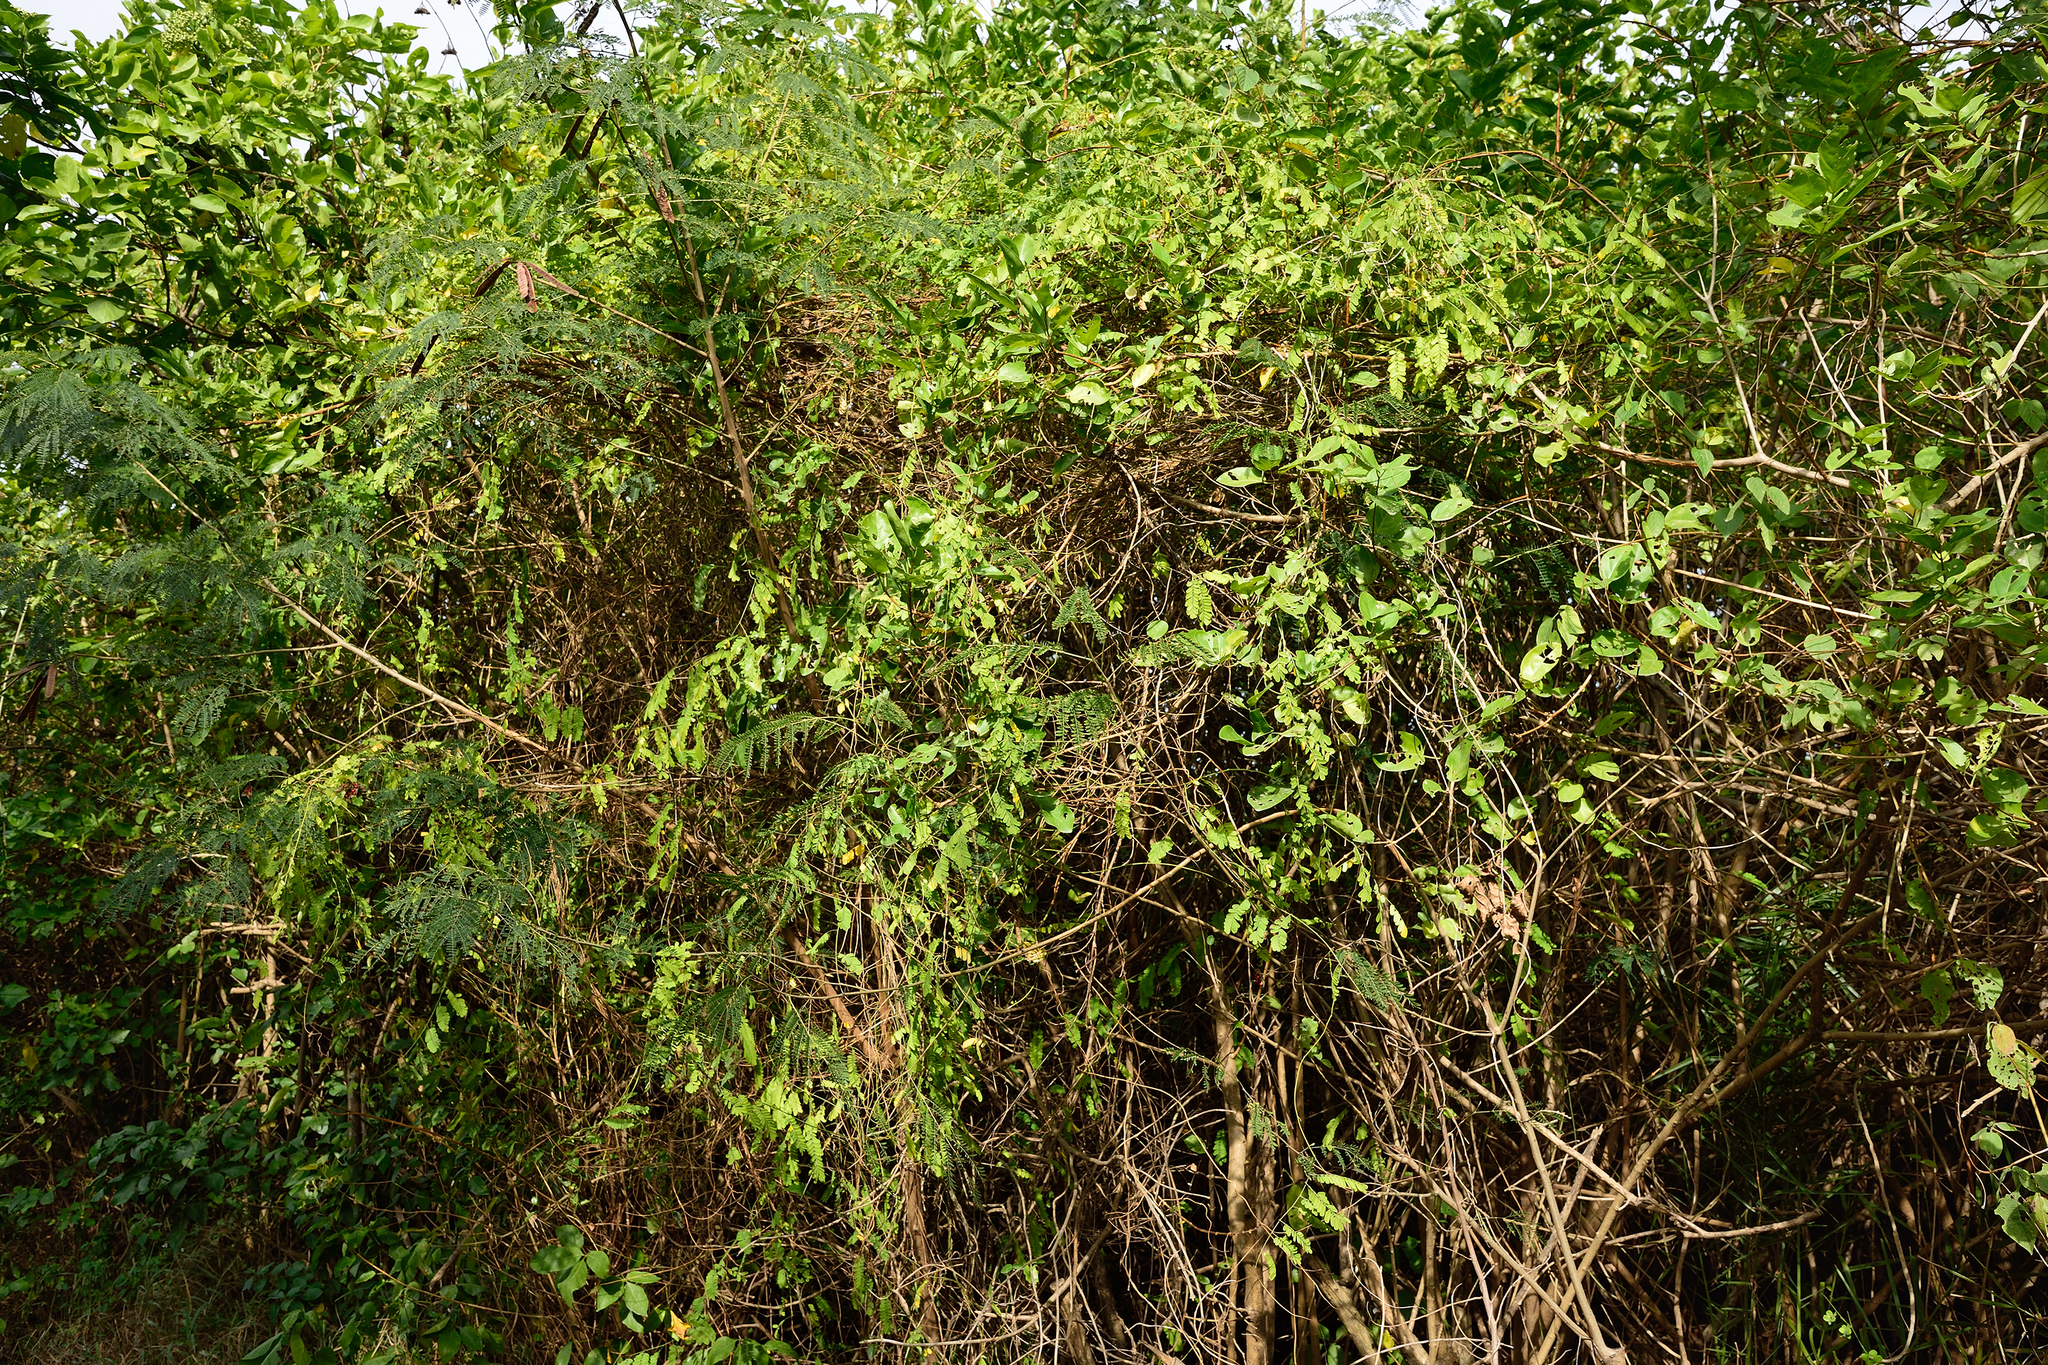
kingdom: Plantae
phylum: Tracheophyta
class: Magnoliopsida
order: Fabales
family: Fabaceae
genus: Abrus
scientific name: Abrus precatorius
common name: Rosarypea
